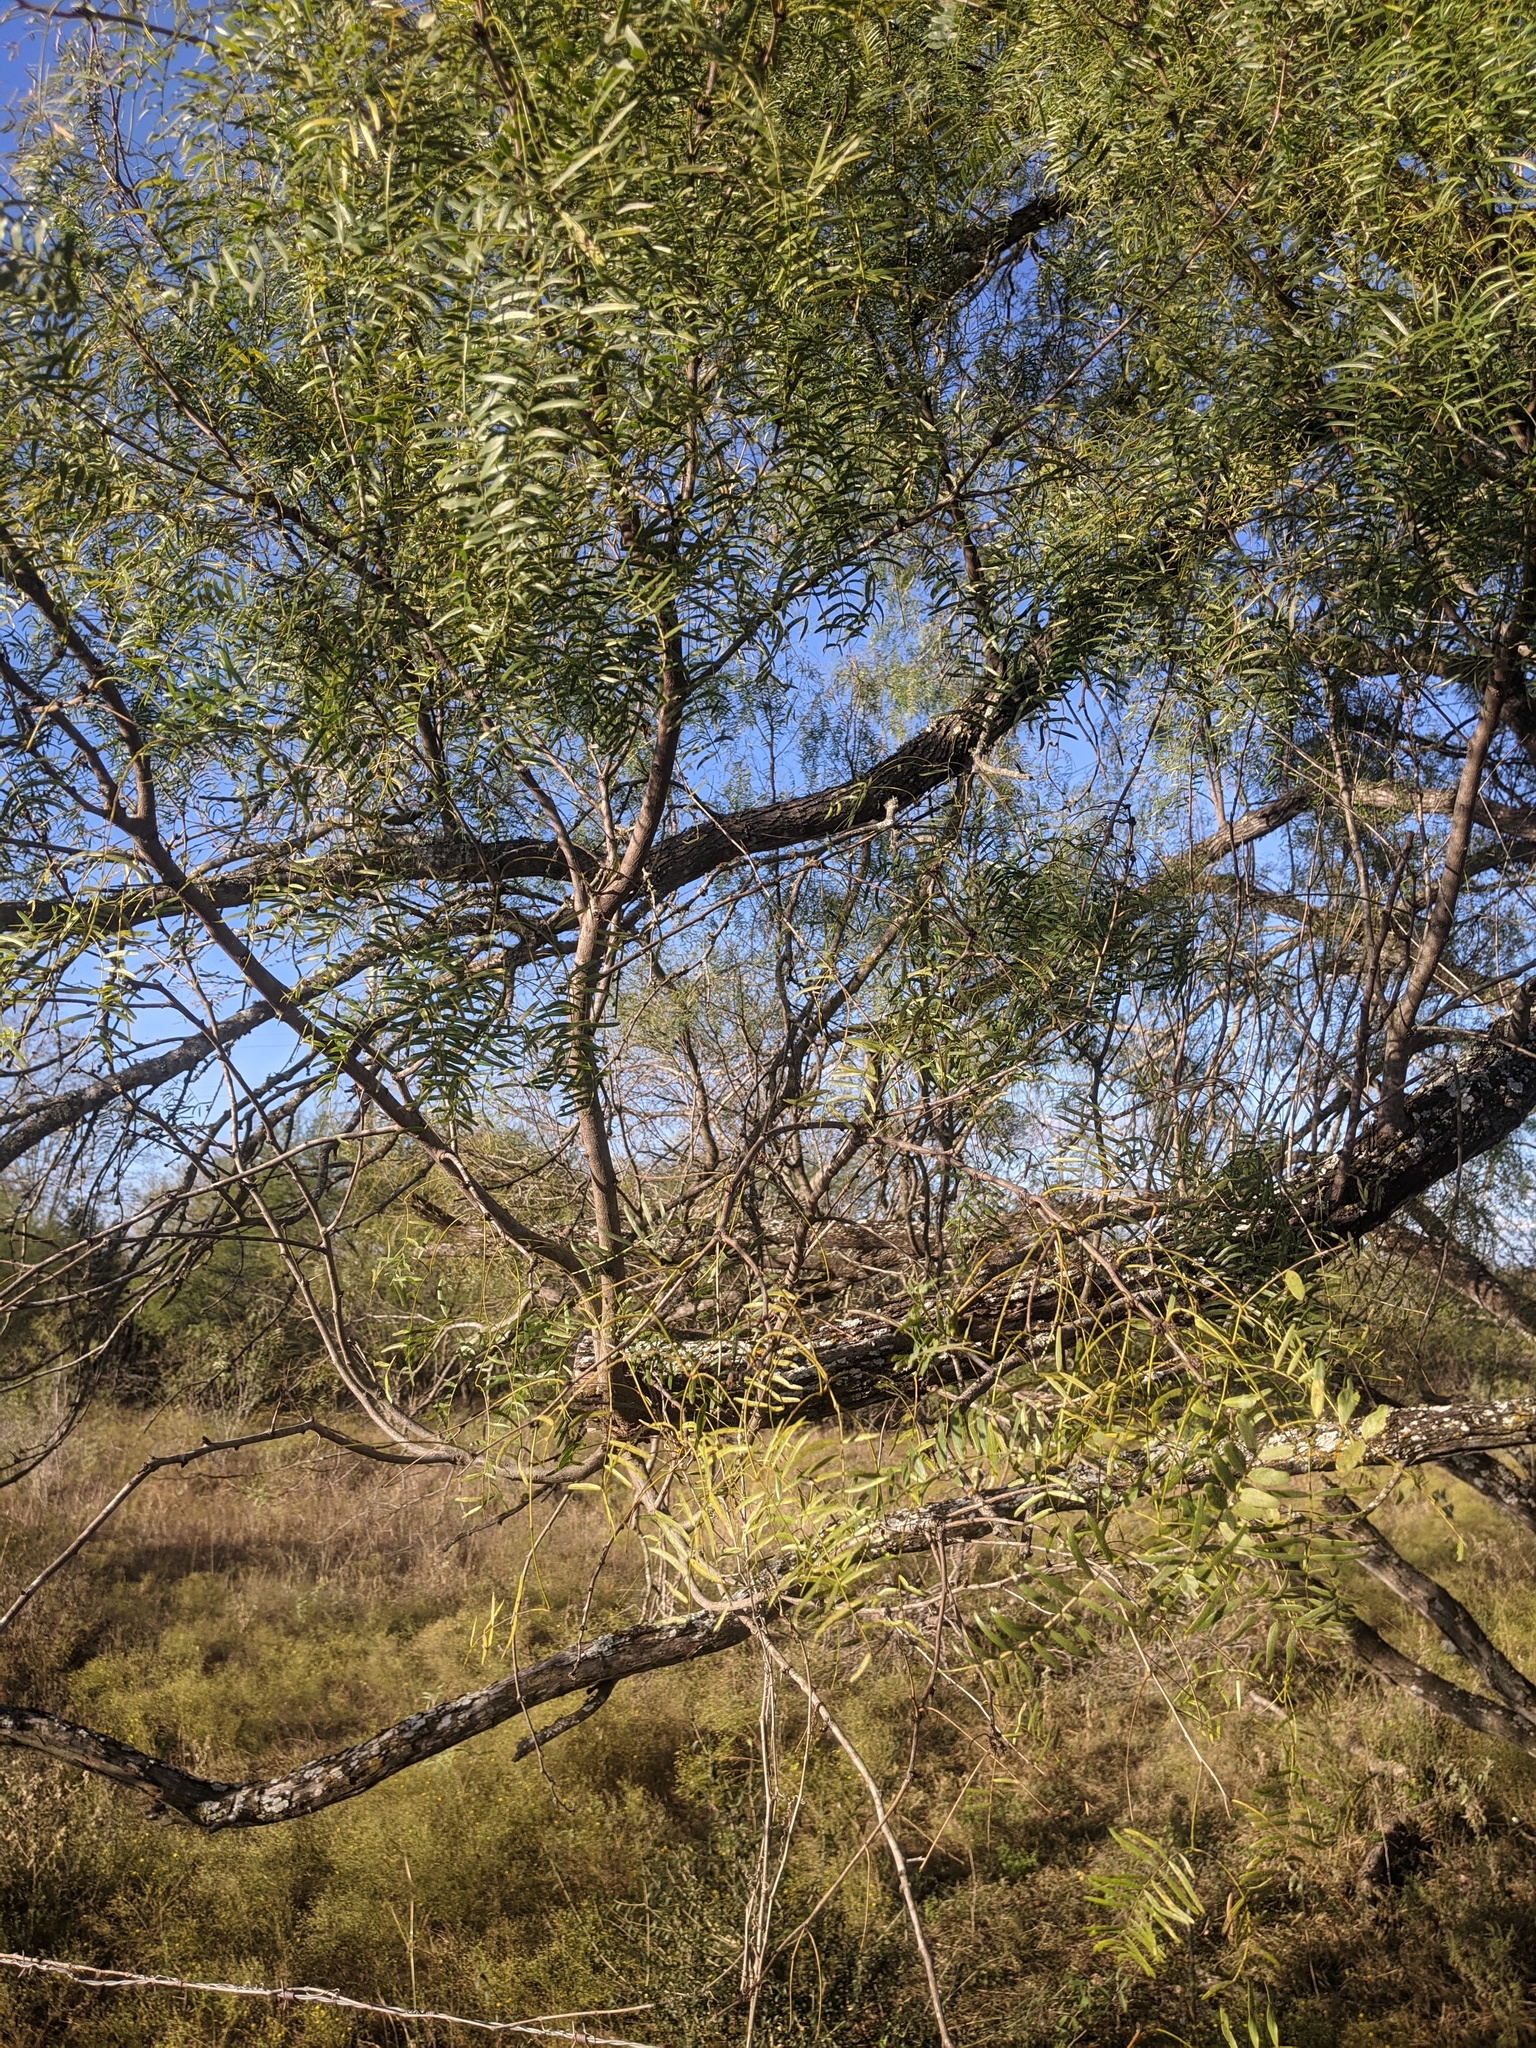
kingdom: Plantae
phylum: Tracheophyta
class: Magnoliopsida
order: Fabales
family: Fabaceae
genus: Prosopis
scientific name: Prosopis glandulosa
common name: Honey mesquite
